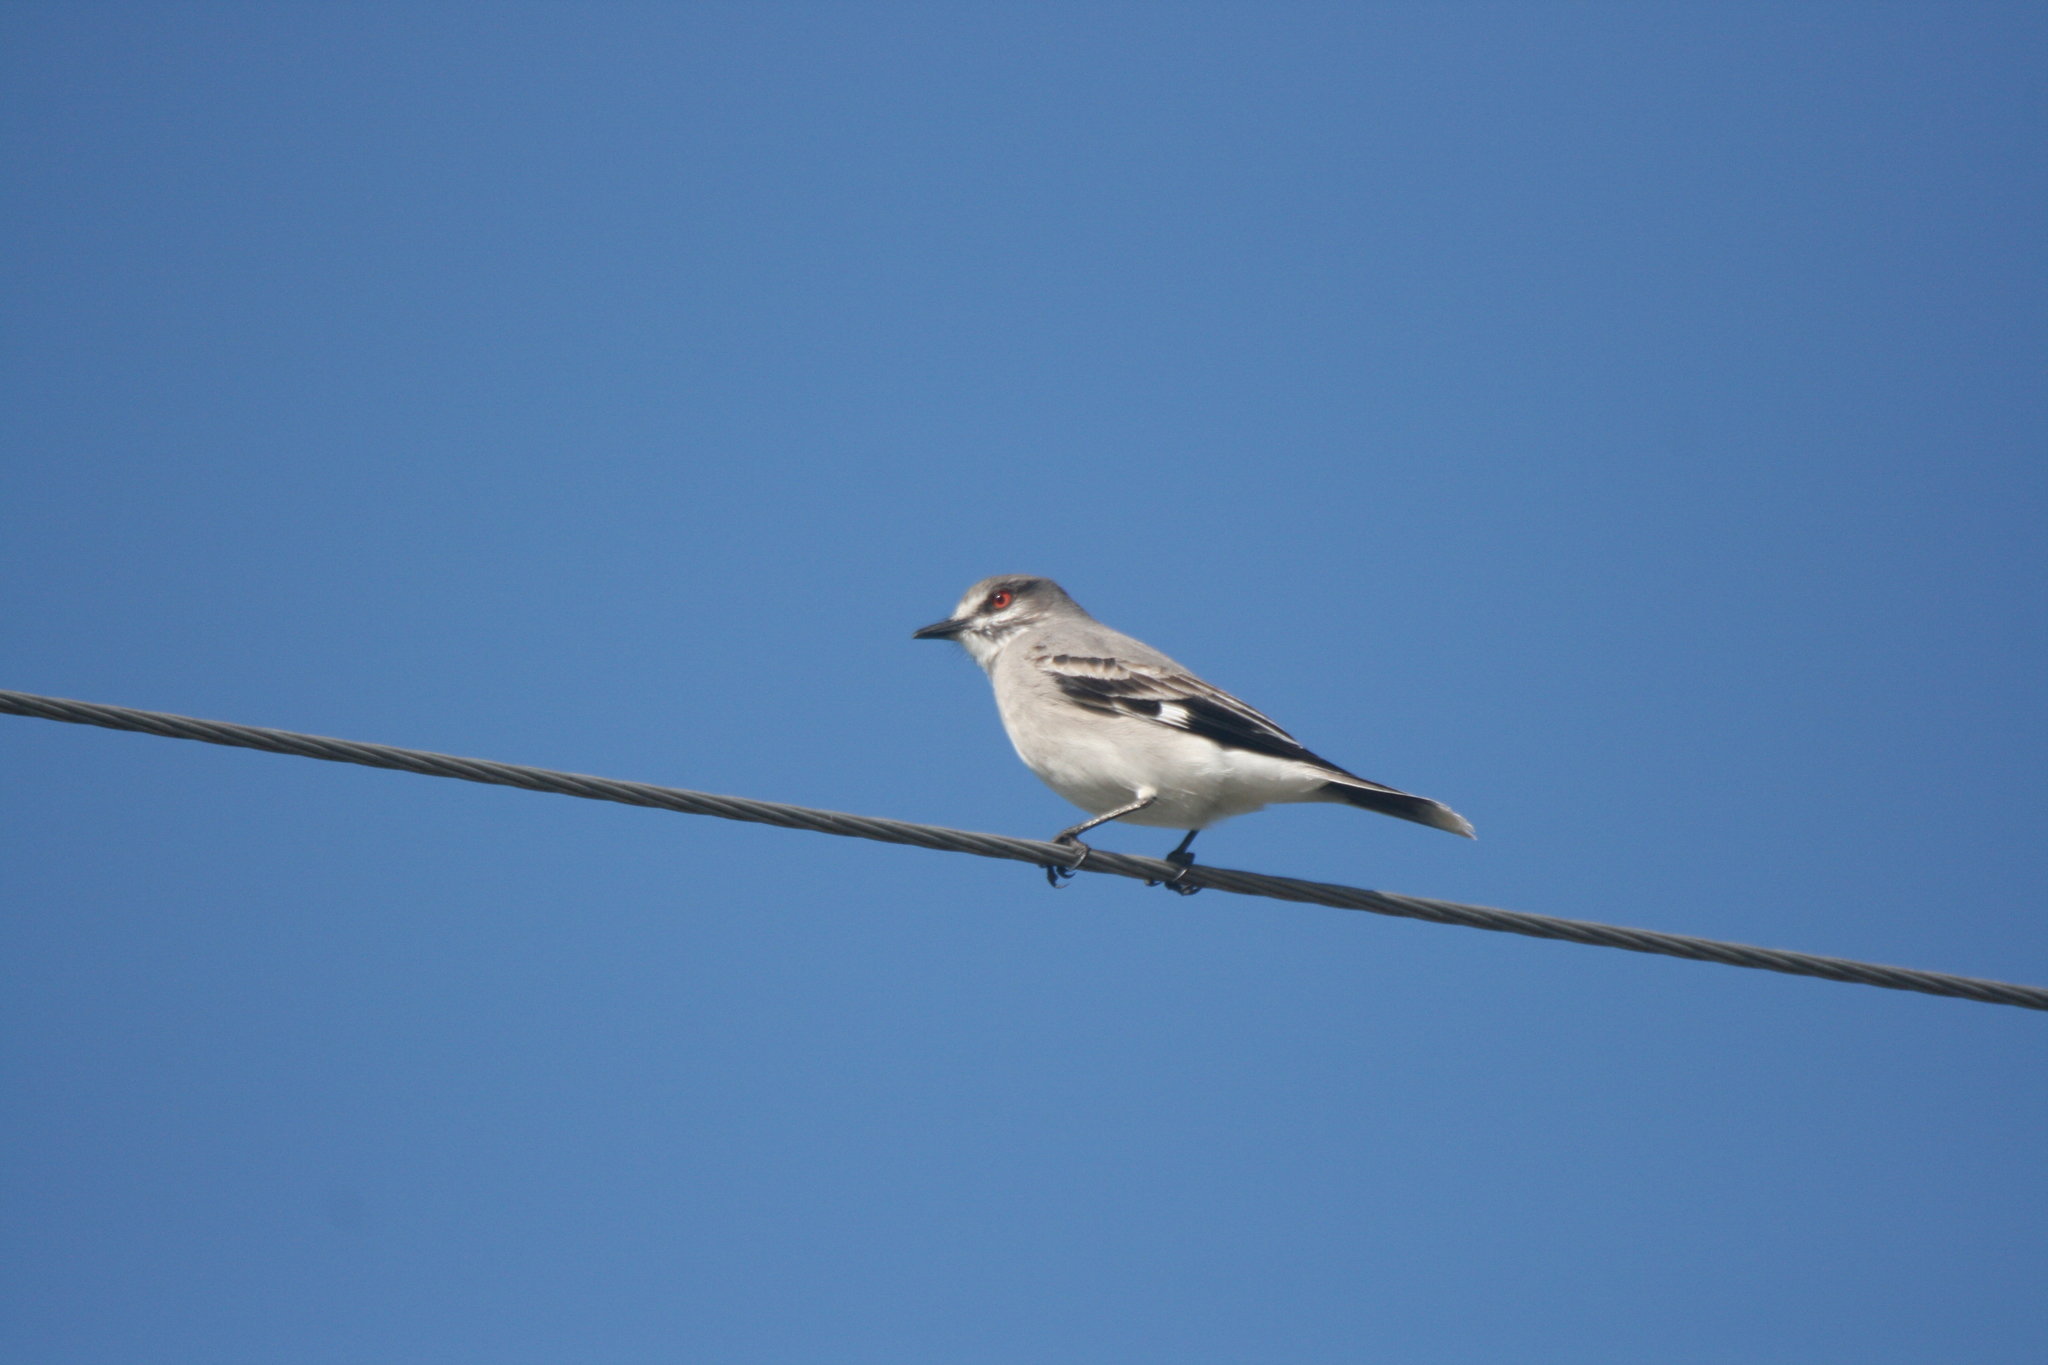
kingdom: Animalia
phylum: Chordata
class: Aves
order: Passeriformes
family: Tyrannidae
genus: Xolmis
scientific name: Xolmis cinereus
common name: Grey monjita
